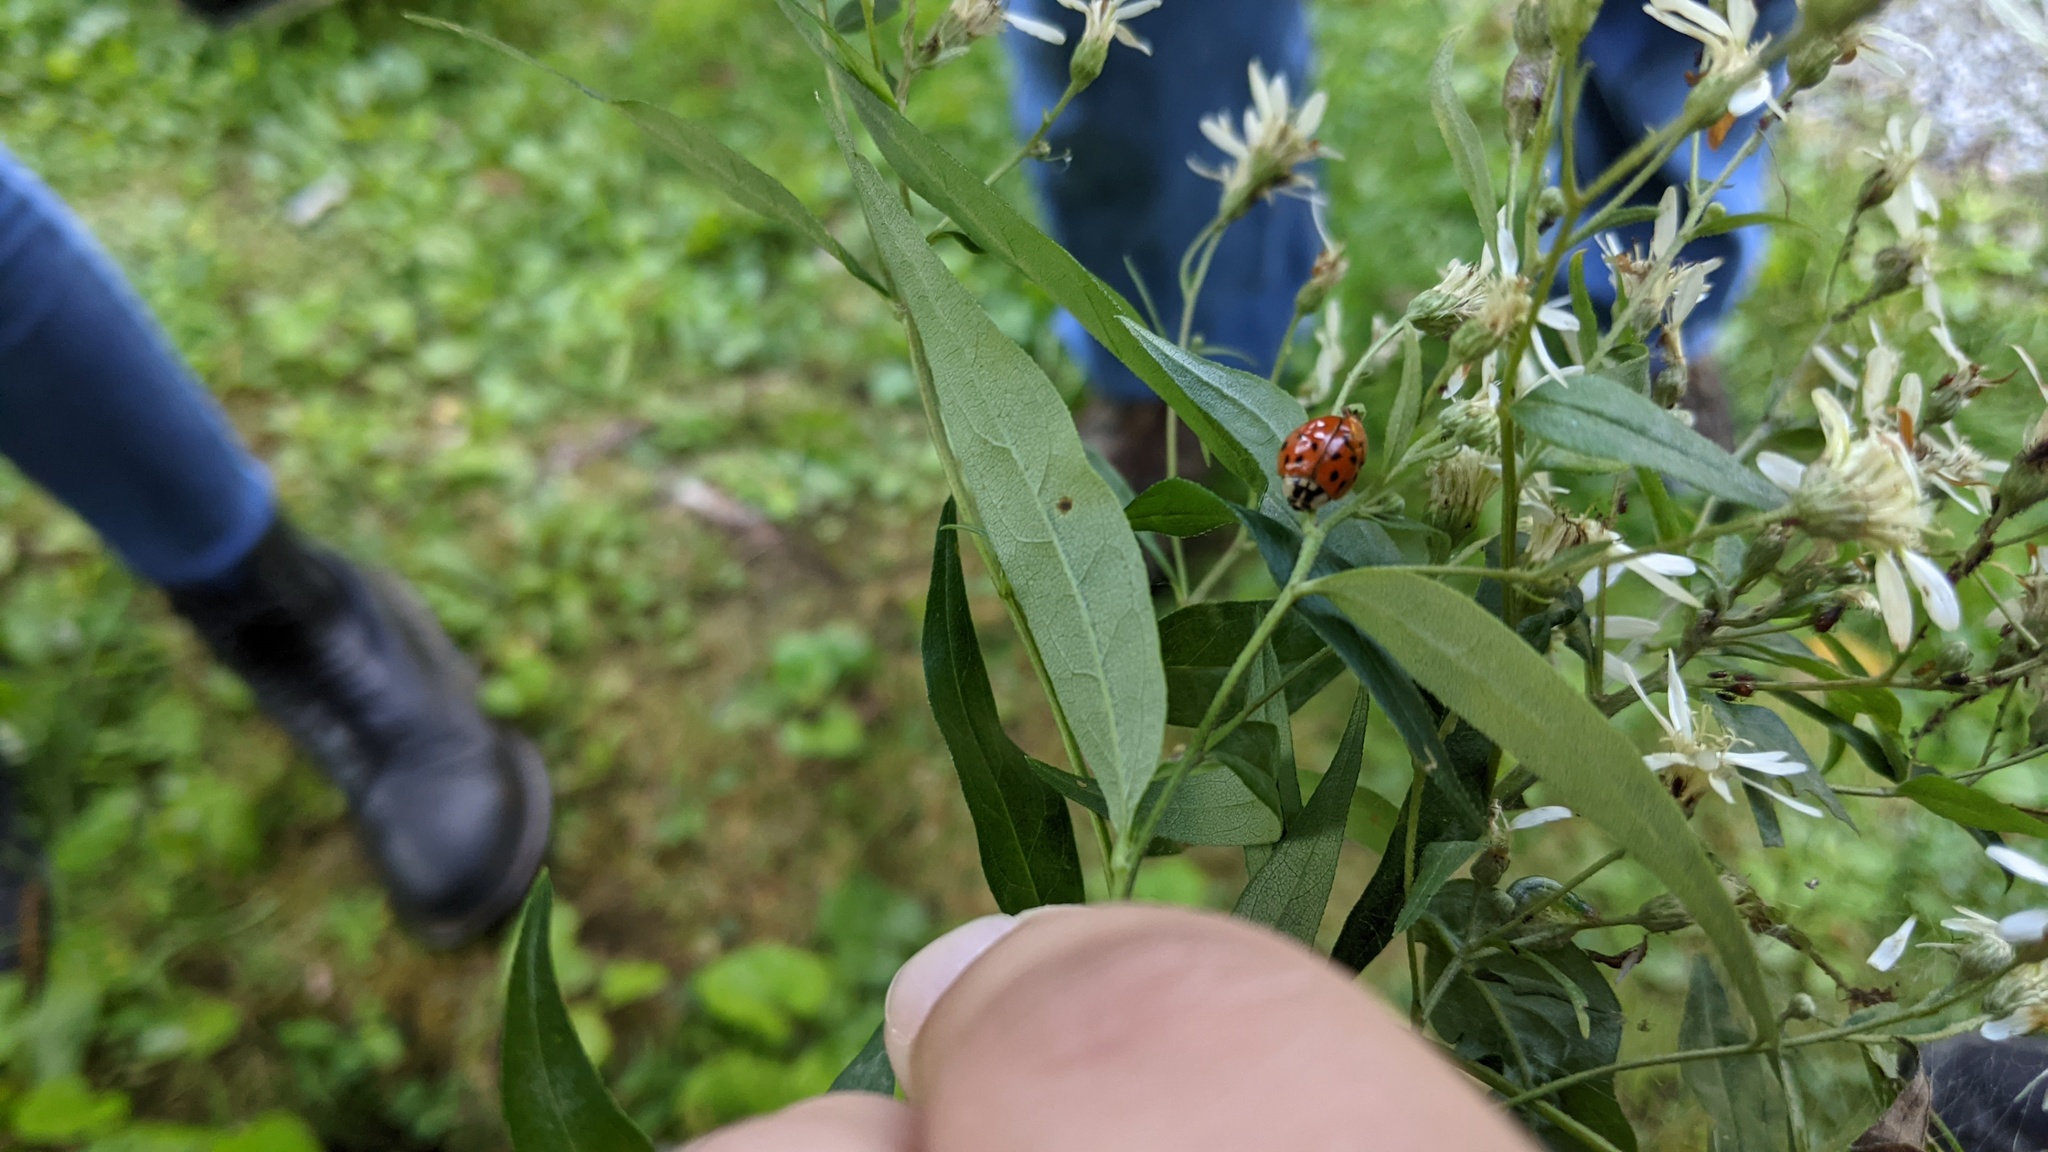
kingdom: Animalia
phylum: Arthropoda
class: Insecta
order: Coleoptera
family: Coccinellidae
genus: Harmonia
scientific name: Harmonia axyridis
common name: Harlequin ladybird
